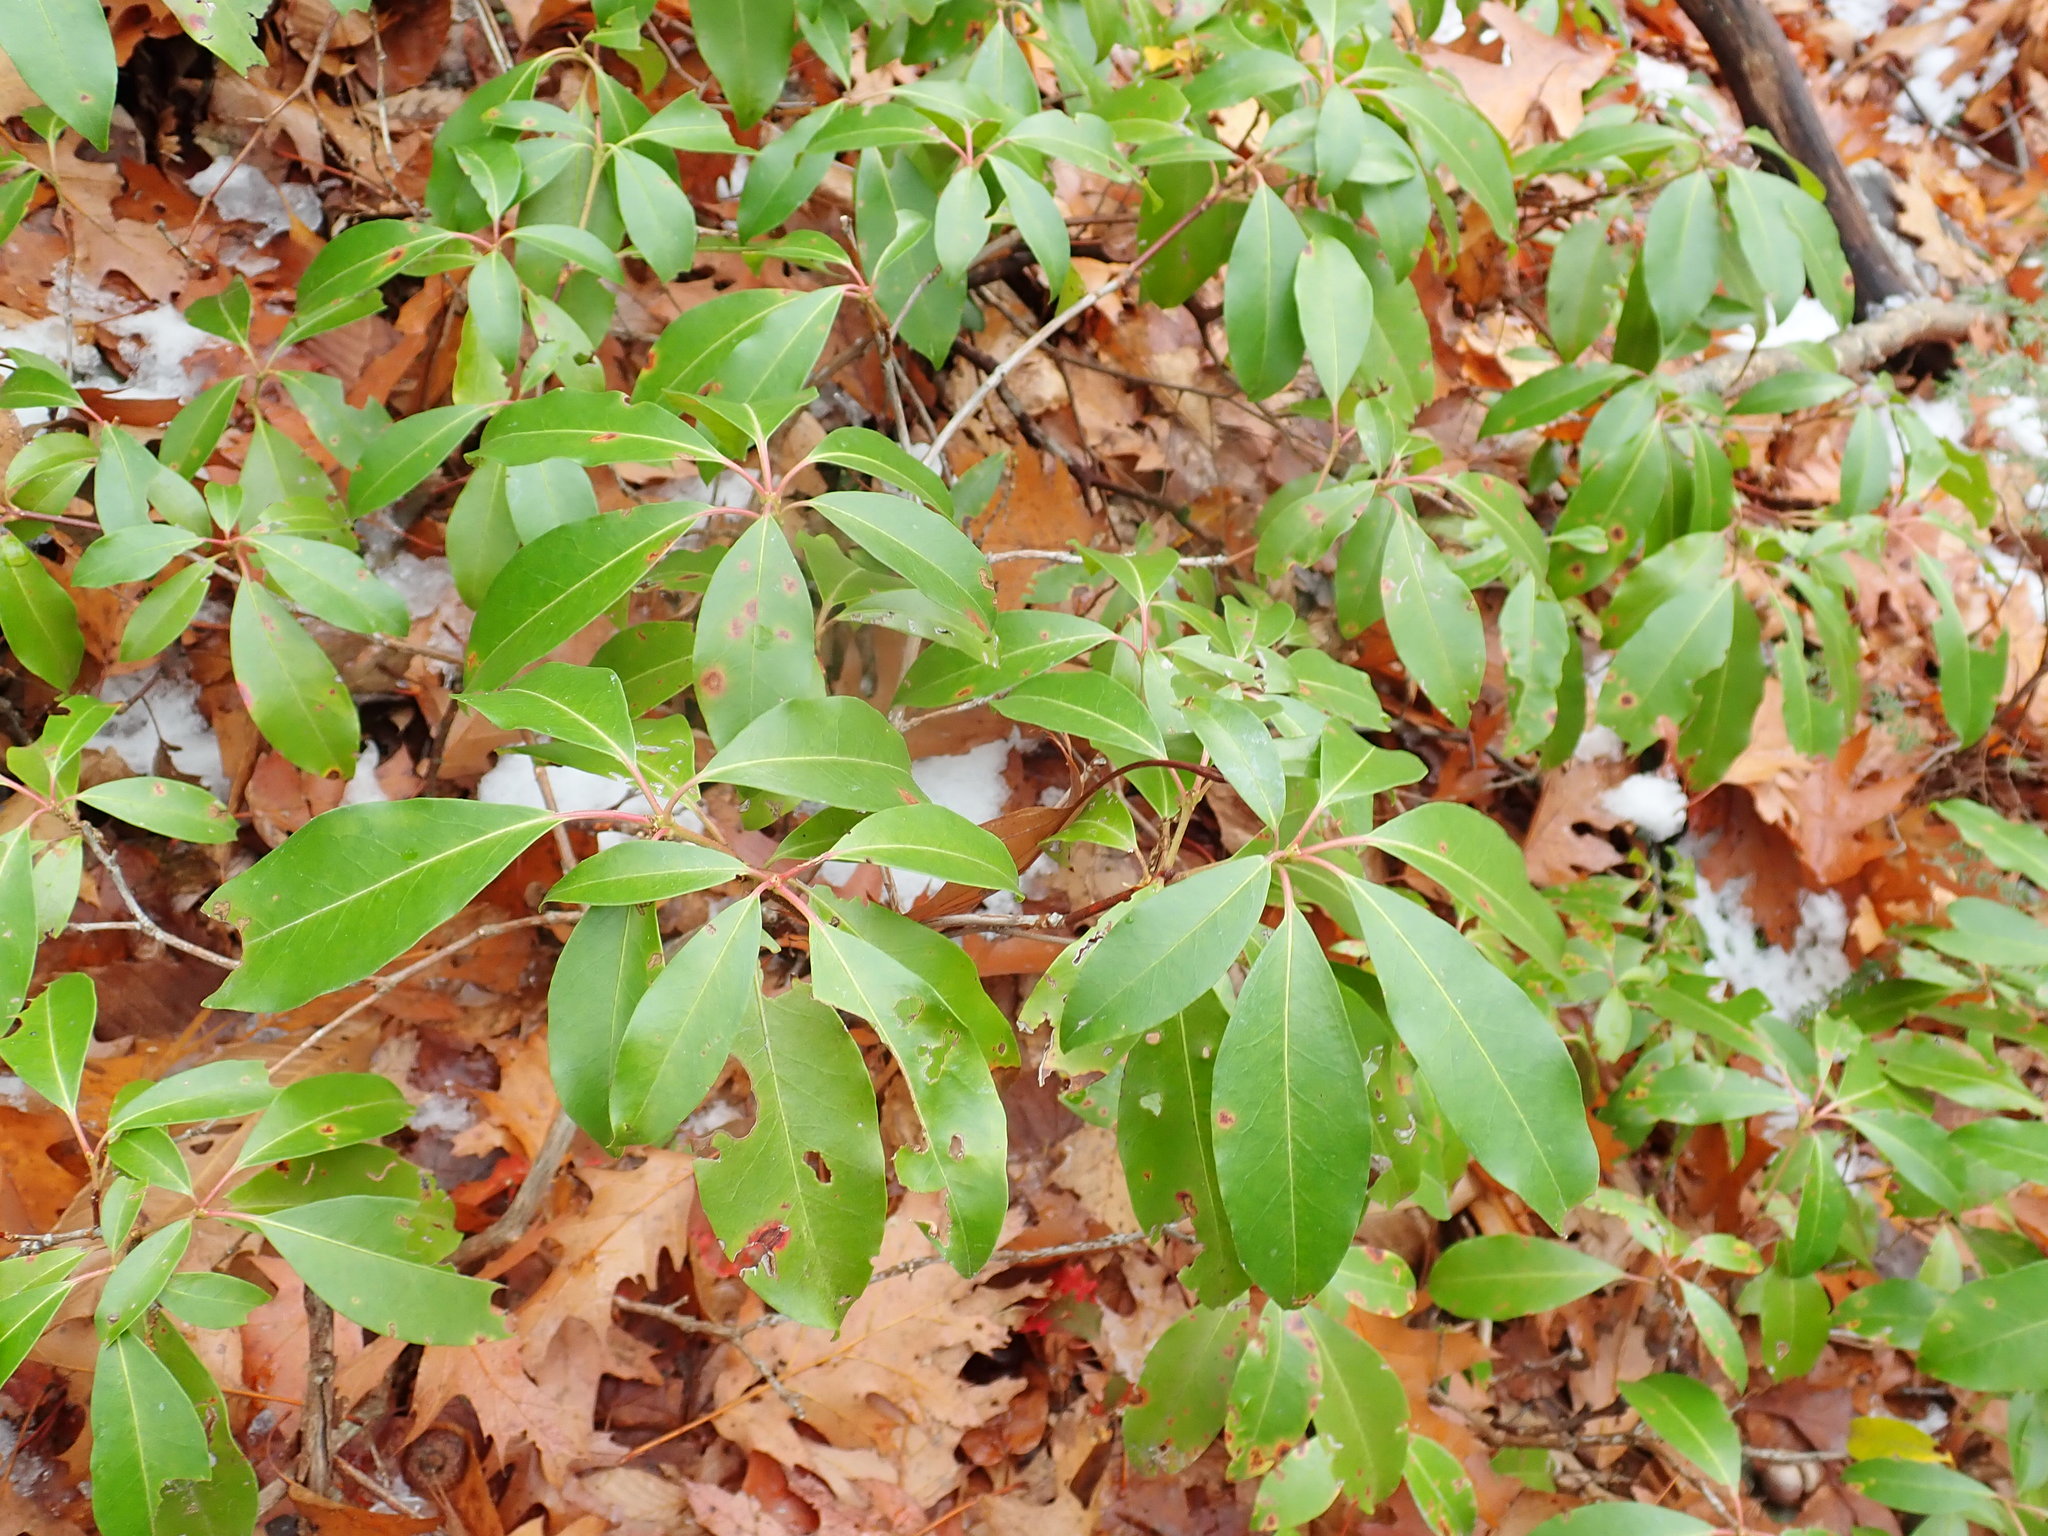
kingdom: Plantae
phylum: Tracheophyta
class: Magnoliopsida
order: Ericales
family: Ericaceae
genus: Kalmia
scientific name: Kalmia latifolia
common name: Mountain-laurel
